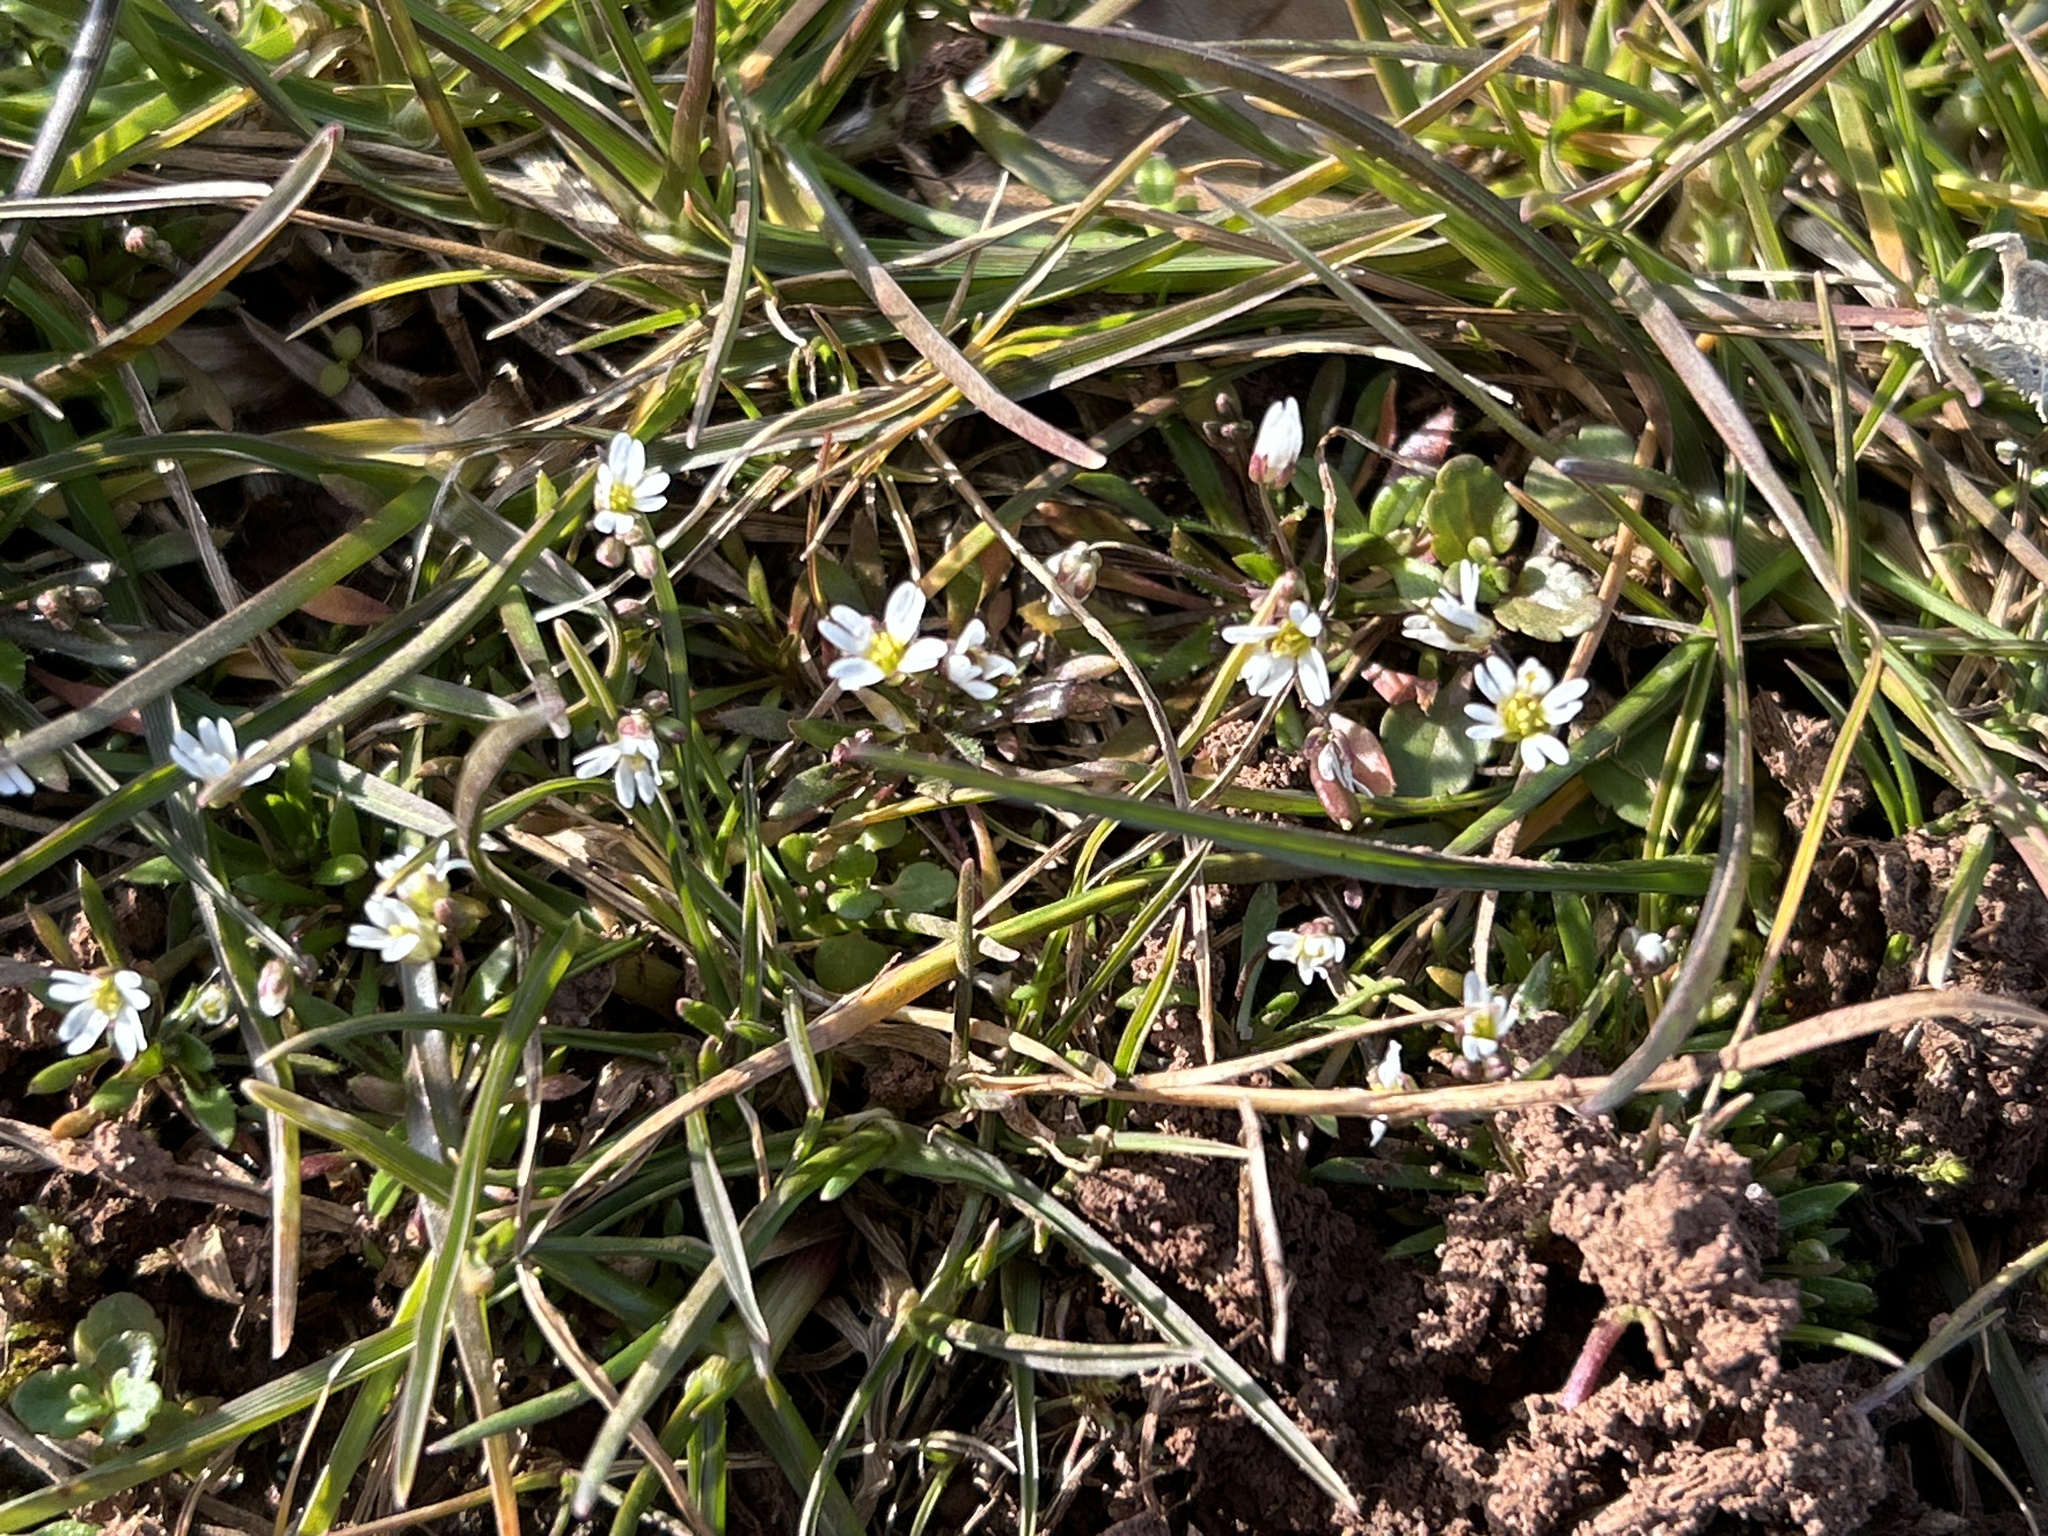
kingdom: Plantae
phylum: Tracheophyta
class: Magnoliopsida
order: Brassicales
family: Brassicaceae
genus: Draba
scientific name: Draba verna
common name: Spring draba
